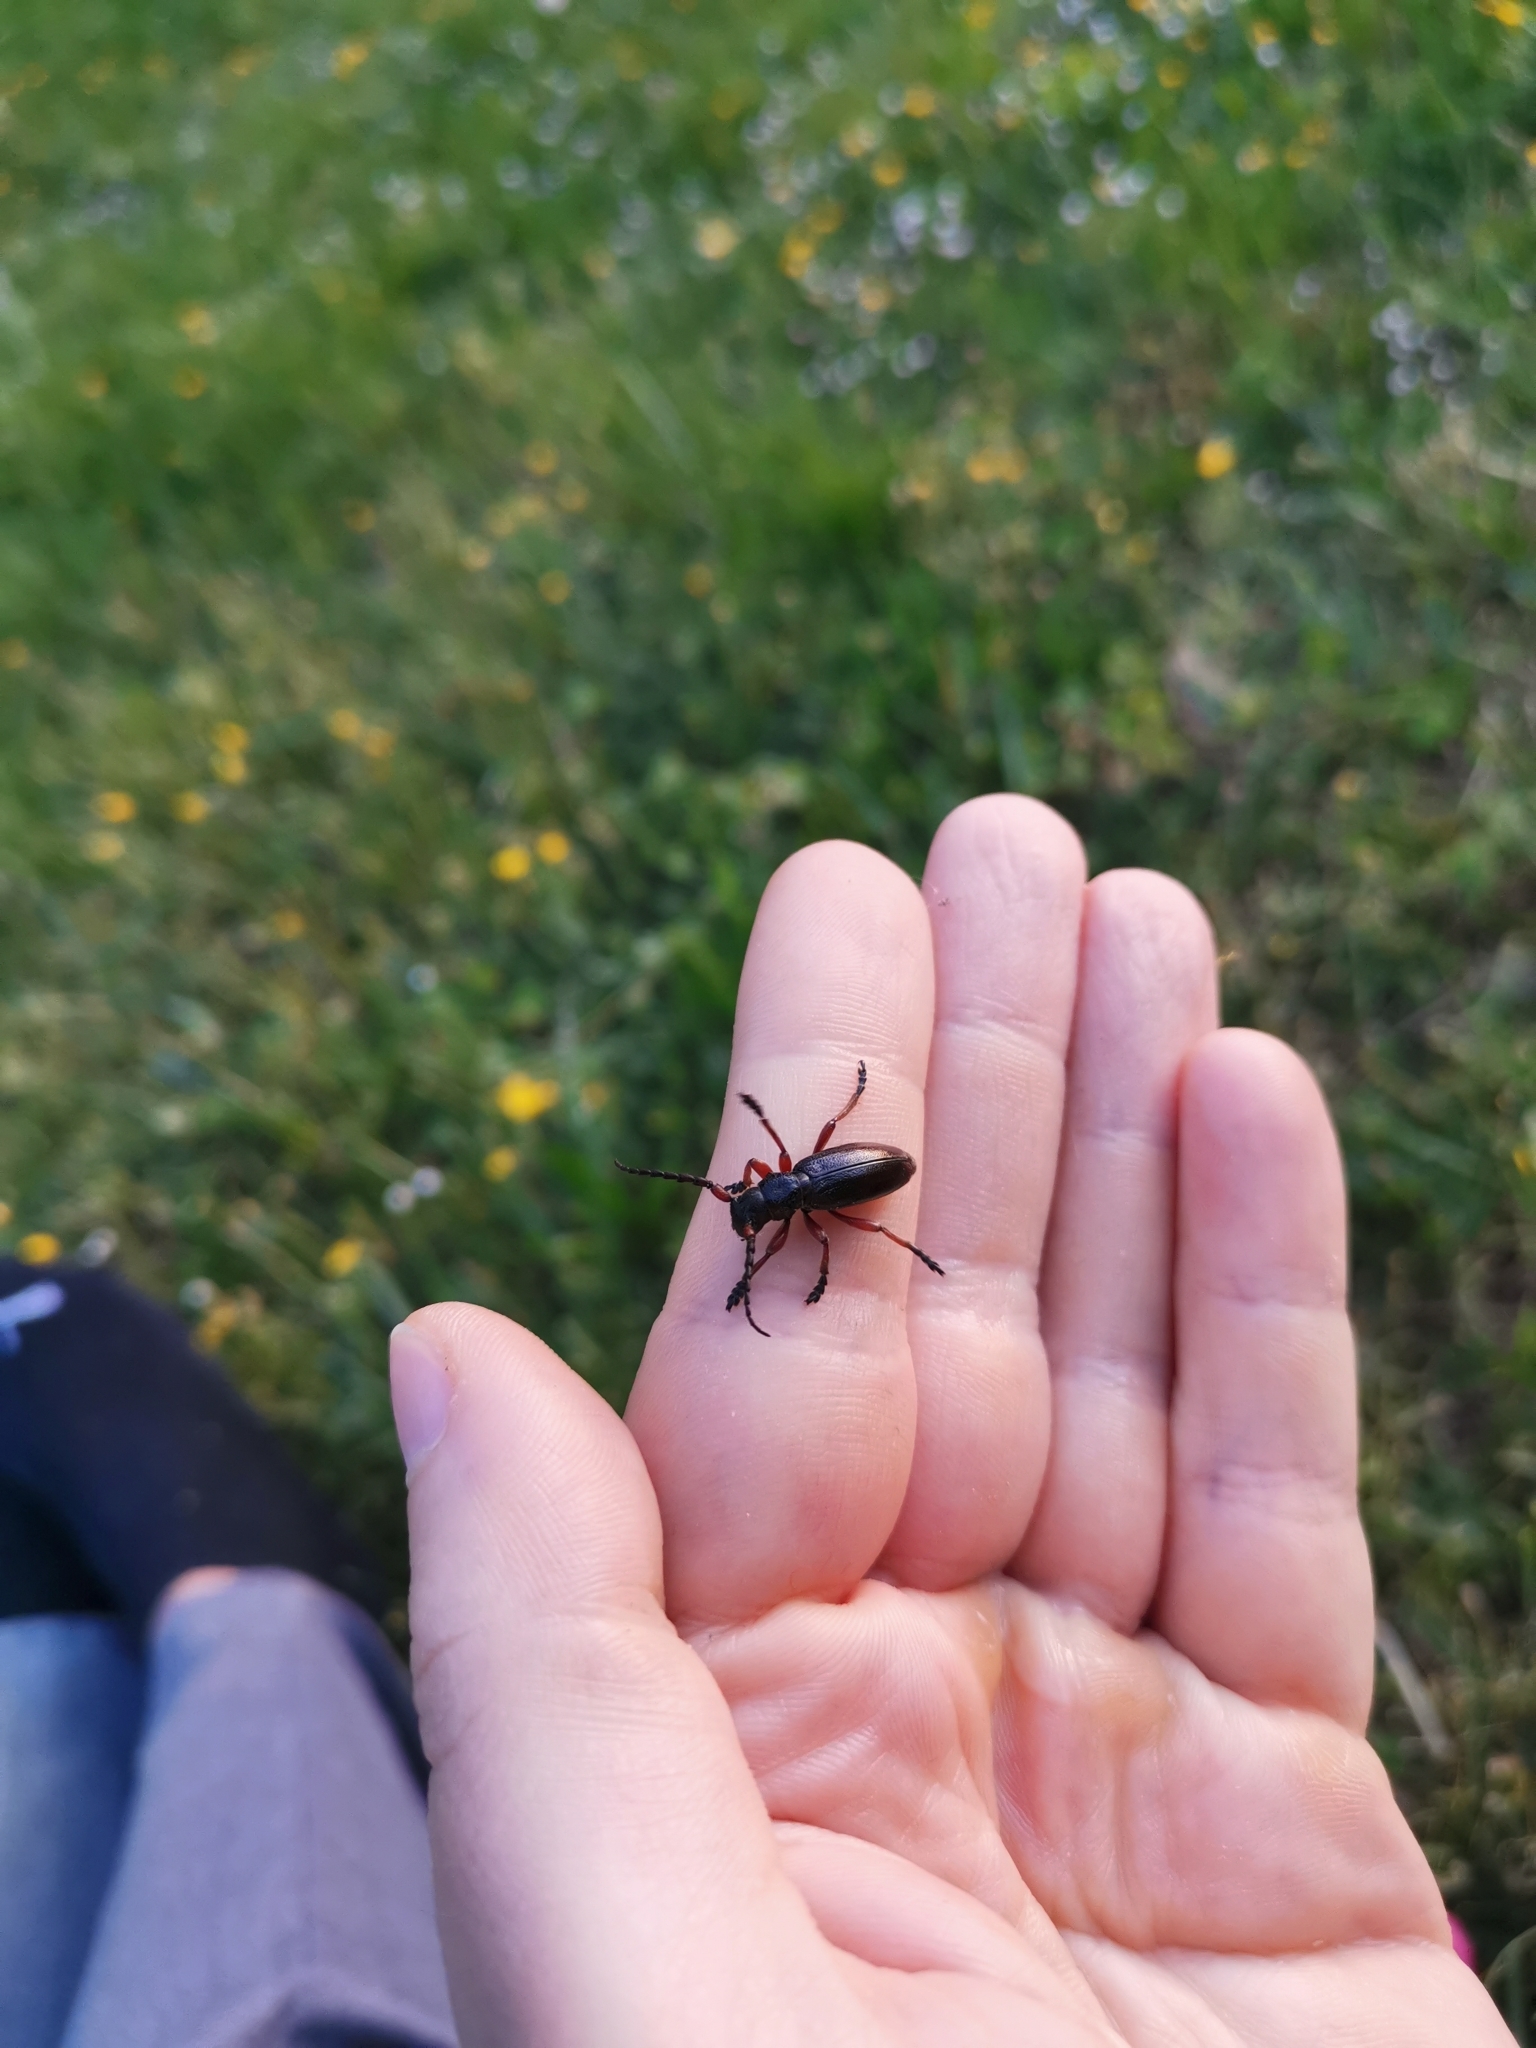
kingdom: Animalia
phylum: Arthropoda
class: Insecta
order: Coleoptera
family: Cerambycidae
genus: Dorcadion
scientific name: Dorcadion fulvum
